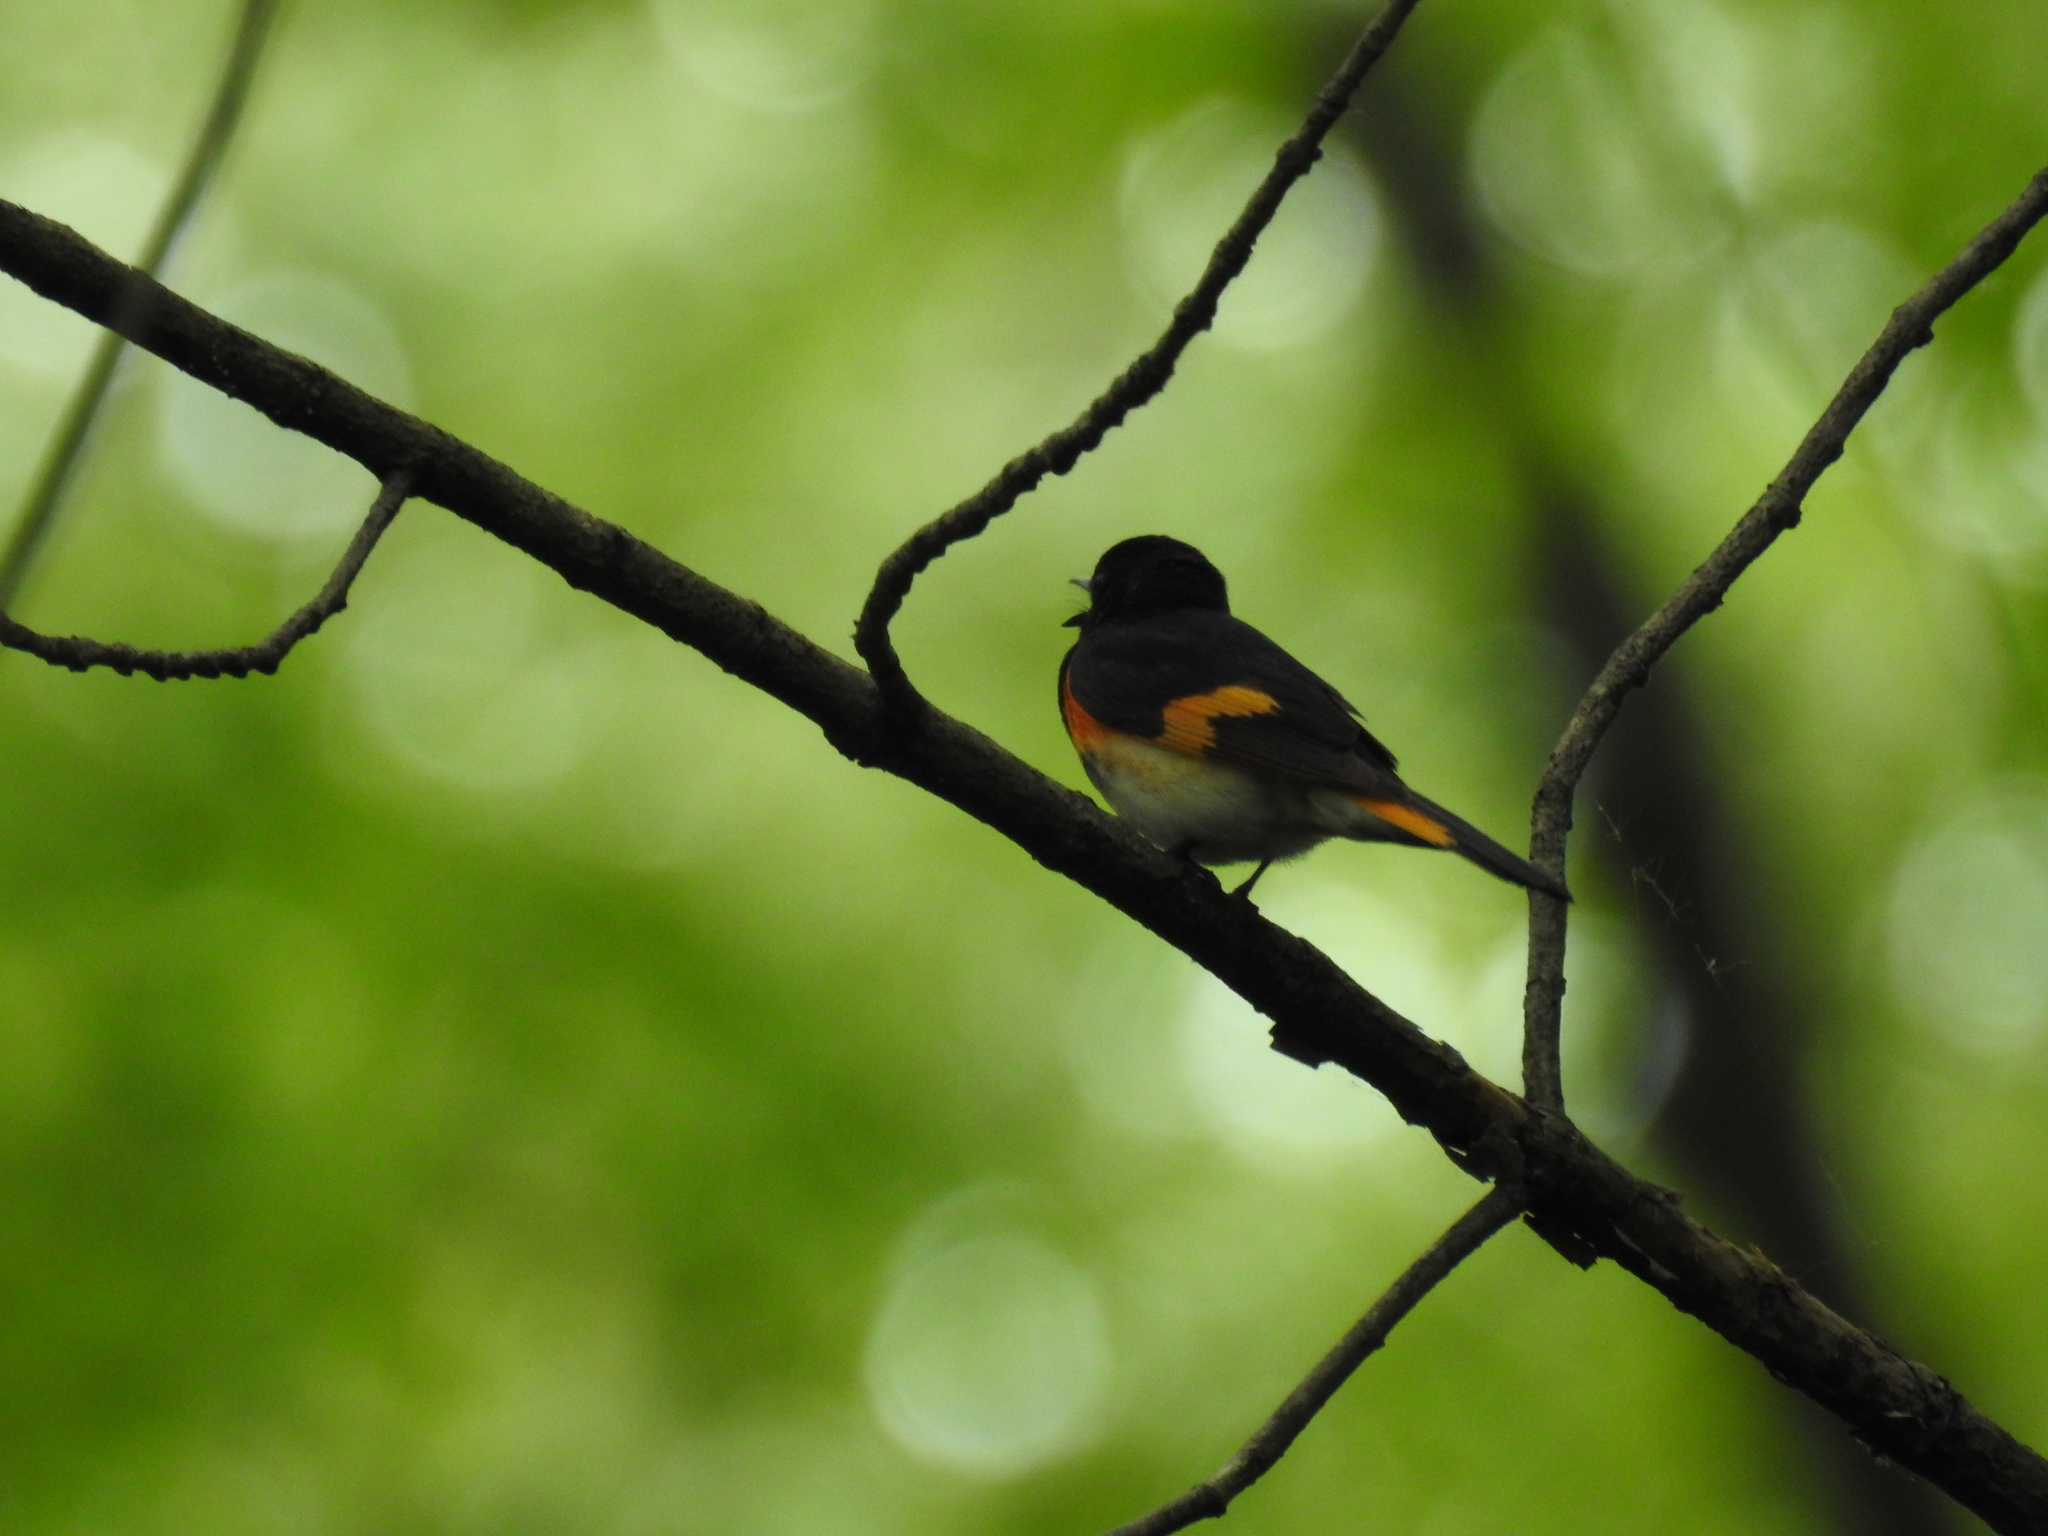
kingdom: Animalia
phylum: Chordata
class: Aves
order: Passeriformes
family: Parulidae
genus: Setophaga
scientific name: Setophaga ruticilla
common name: American redstart
